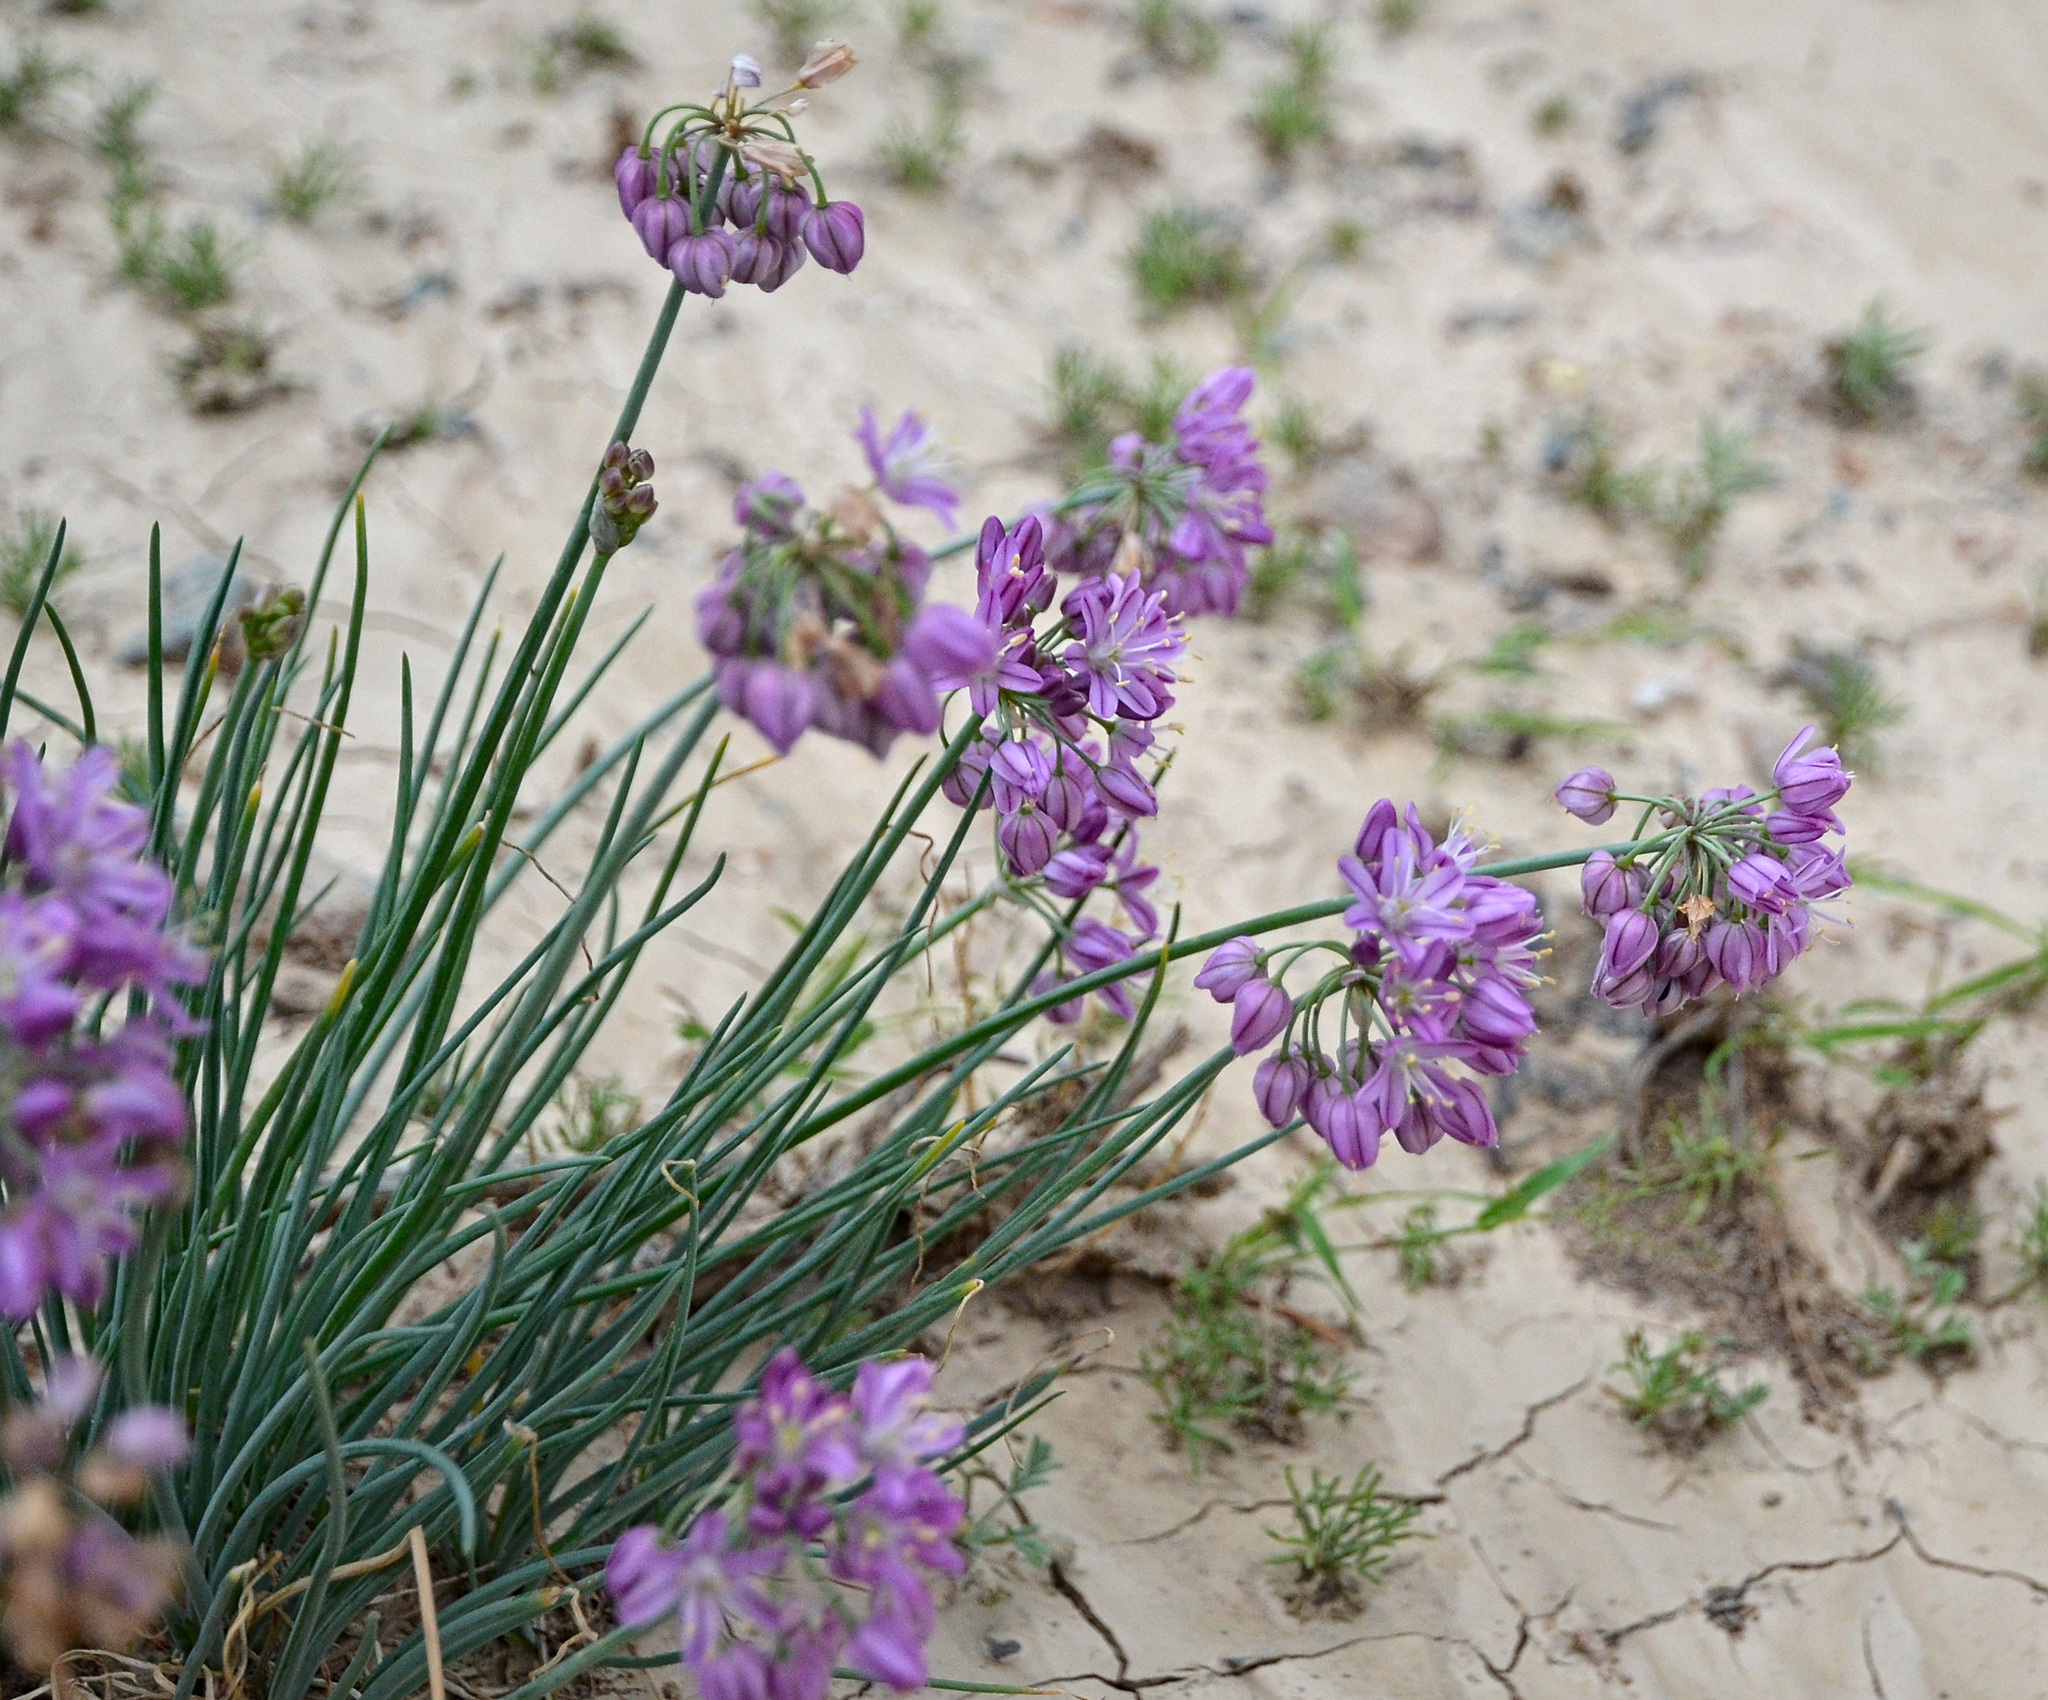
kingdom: Plantae
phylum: Tracheophyta
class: Liliopsida
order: Asparagales
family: Amaryllidaceae
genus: Allium
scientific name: Allium mongolicum
